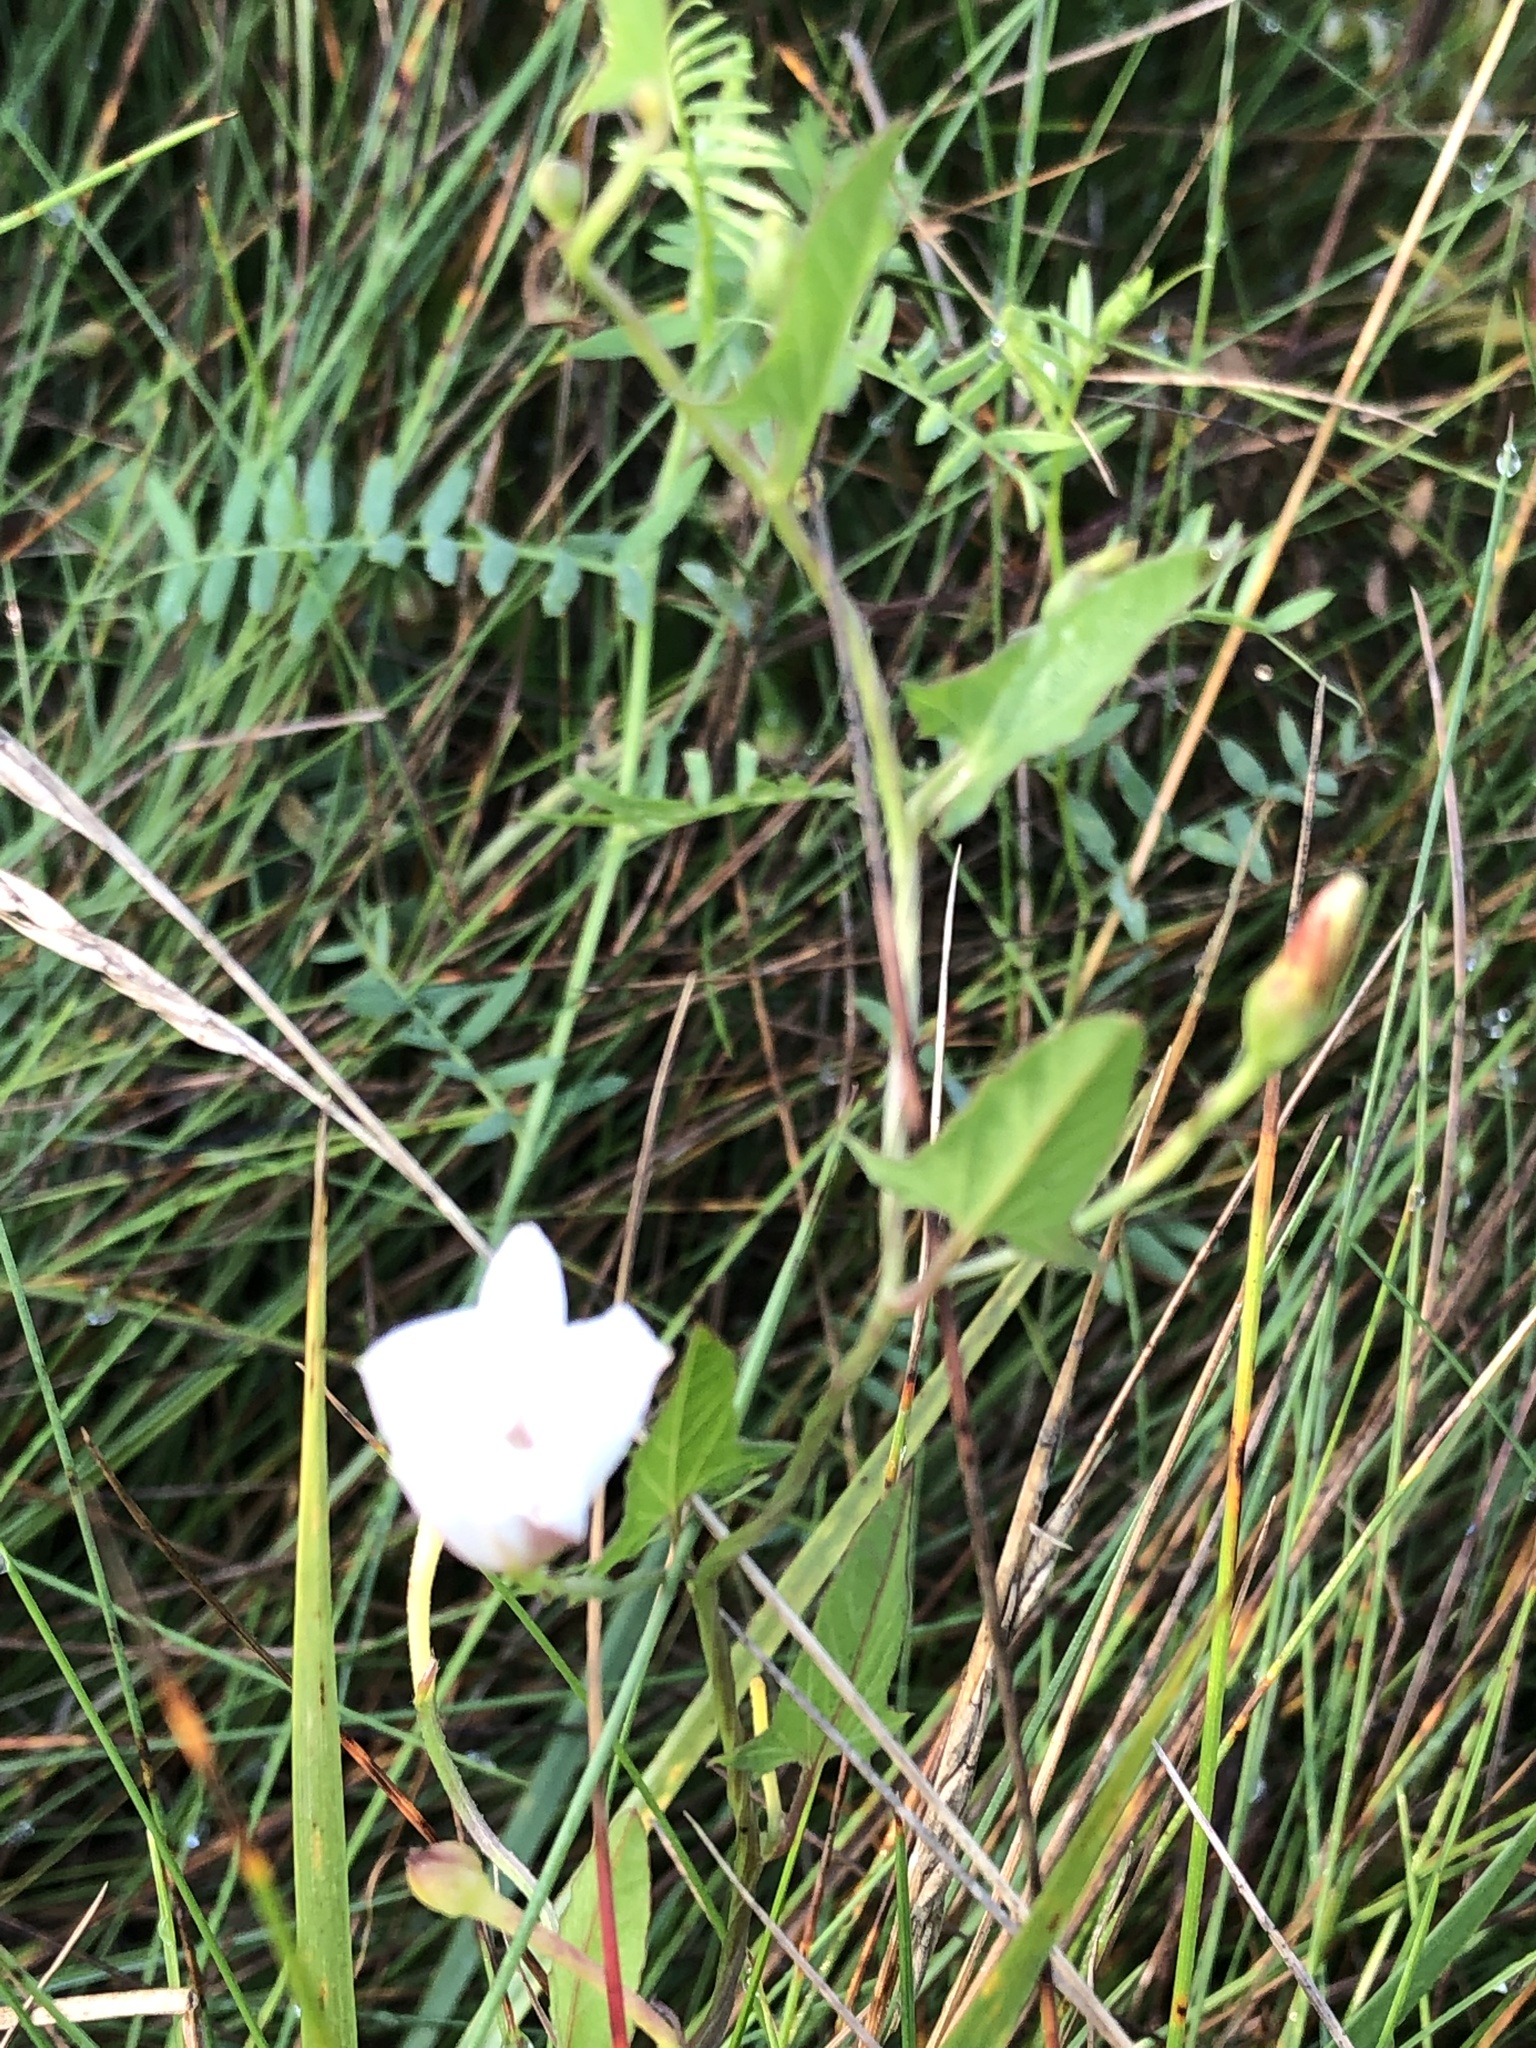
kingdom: Plantae
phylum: Tracheophyta
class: Magnoliopsida
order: Solanales
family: Convolvulaceae
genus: Convolvulus
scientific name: Convolvulus arvensis
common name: Field bindweed
